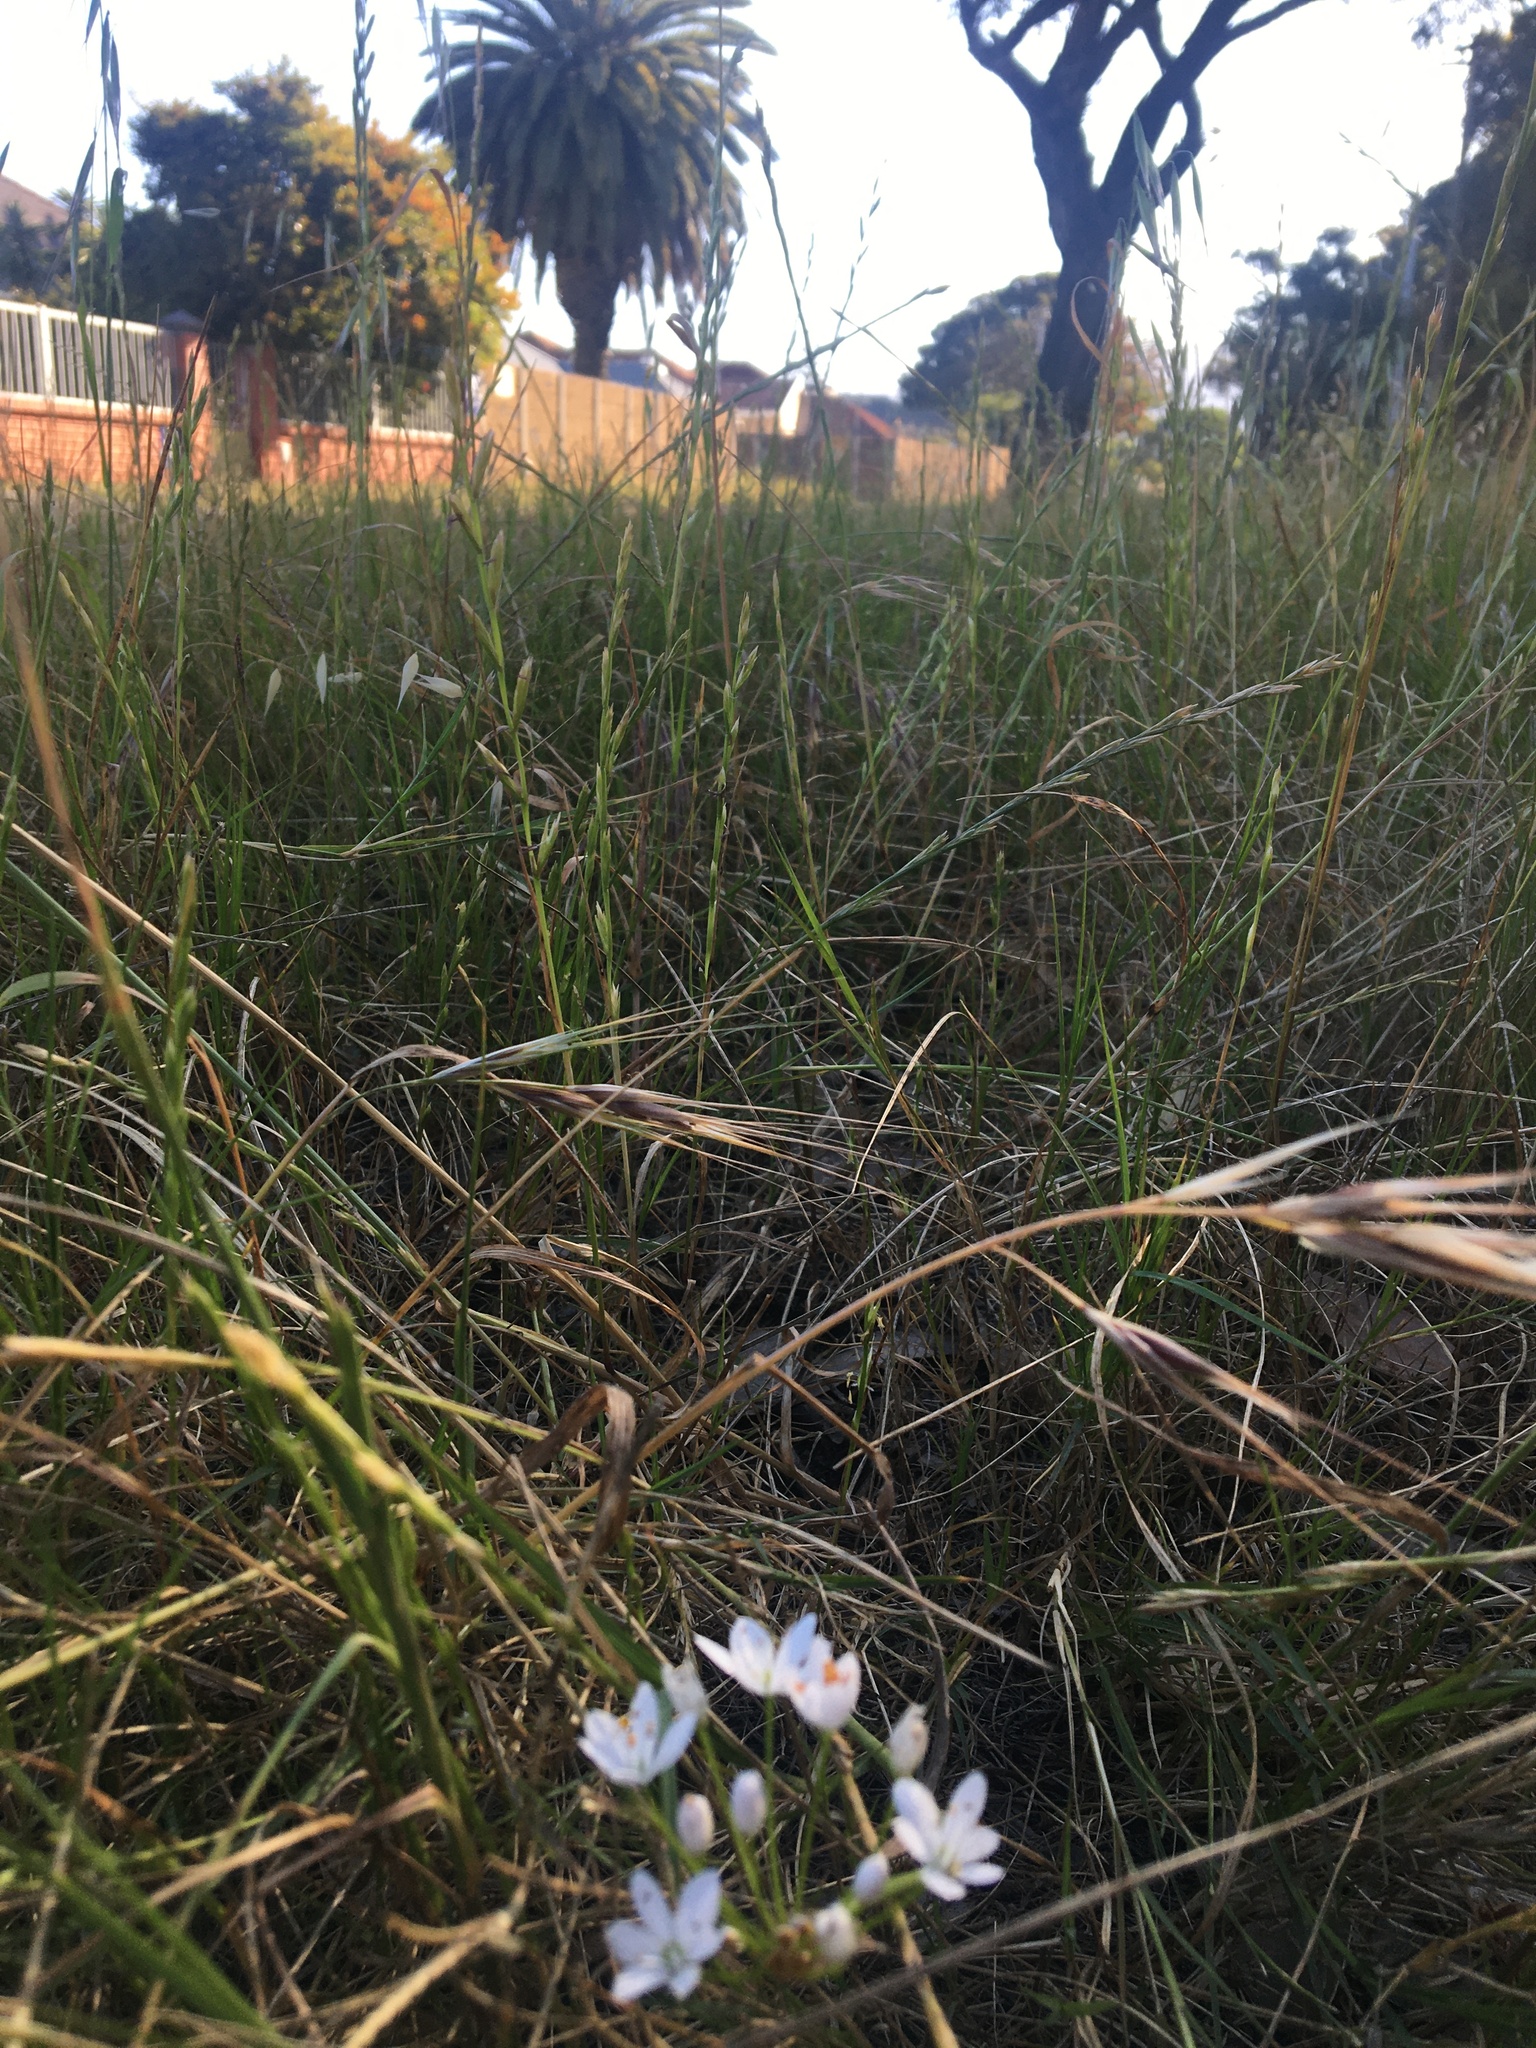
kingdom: Plantae
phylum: Tracheophyta
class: Liliopsida
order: Asparagales
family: Amaryllidaceae
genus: Allium
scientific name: Allium neapolitanum
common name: Neapolitan garlic
